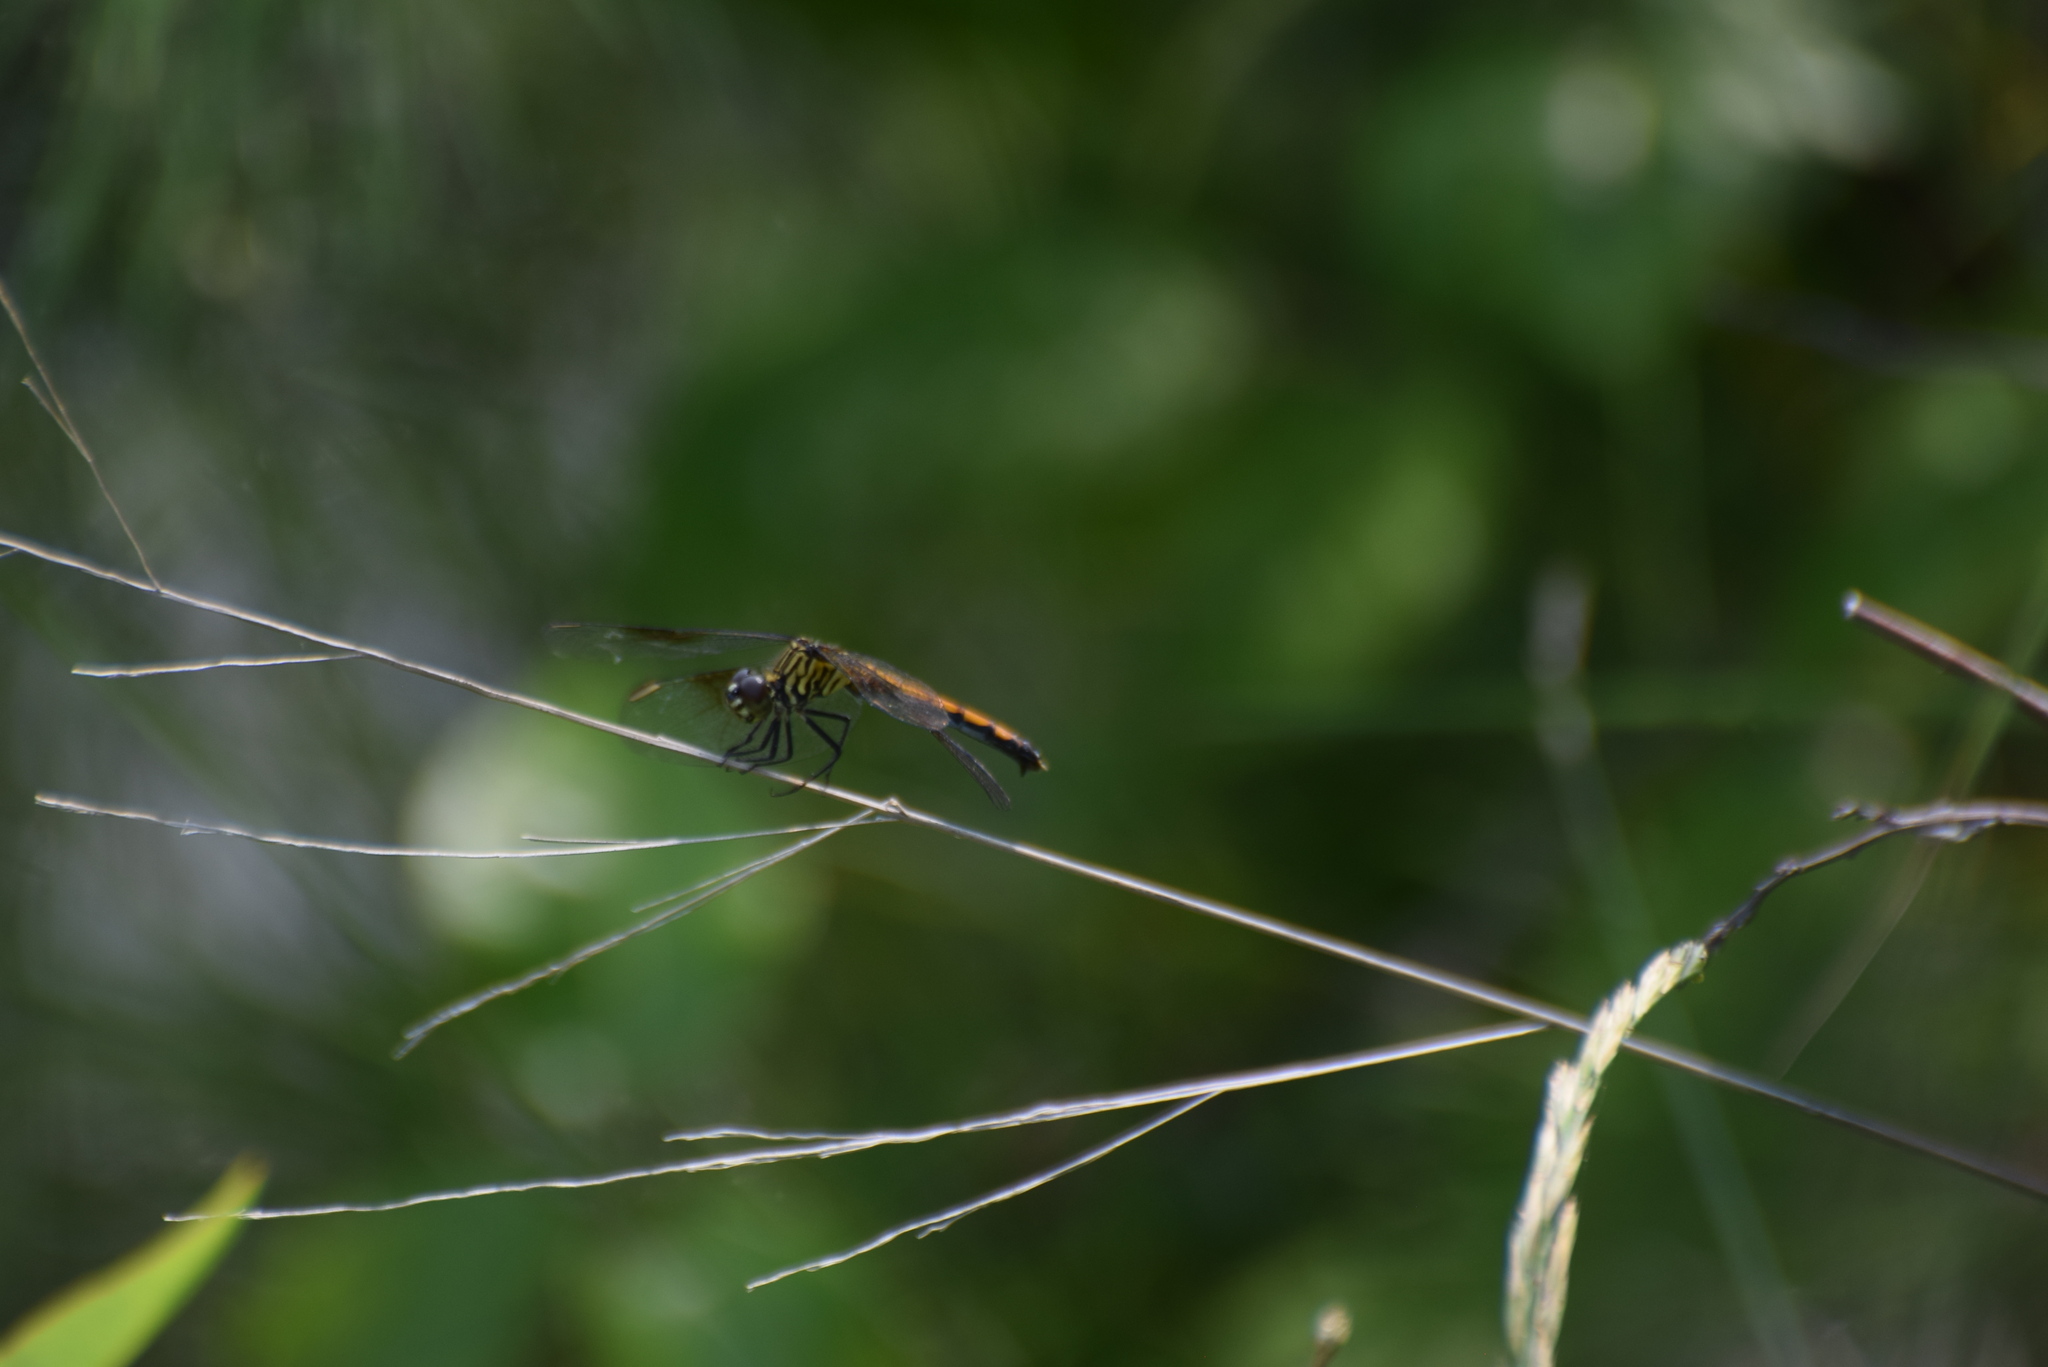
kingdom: Animalia
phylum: Arthropoda
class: Insecta
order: Odonata
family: Libellulidae
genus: Erythrodiplax
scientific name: Erythrodiplax berenice
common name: Seaside dragonlet
